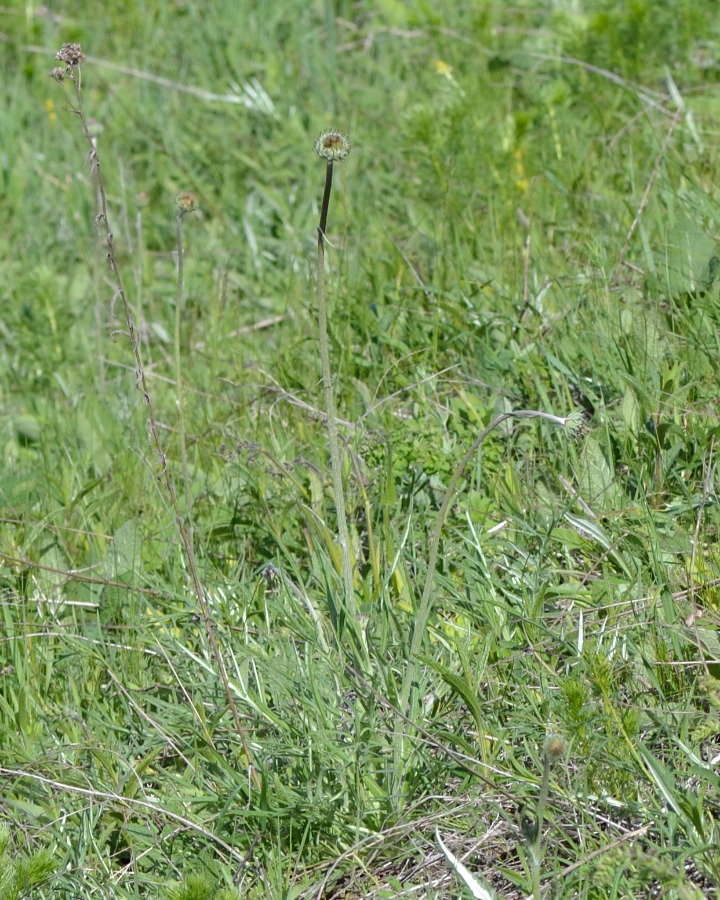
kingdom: Plantae
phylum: Tracheophyta
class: Magnoliopsida
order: Asterales
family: Asteraceae
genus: Jurinea
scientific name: Jurinea ledebourii
